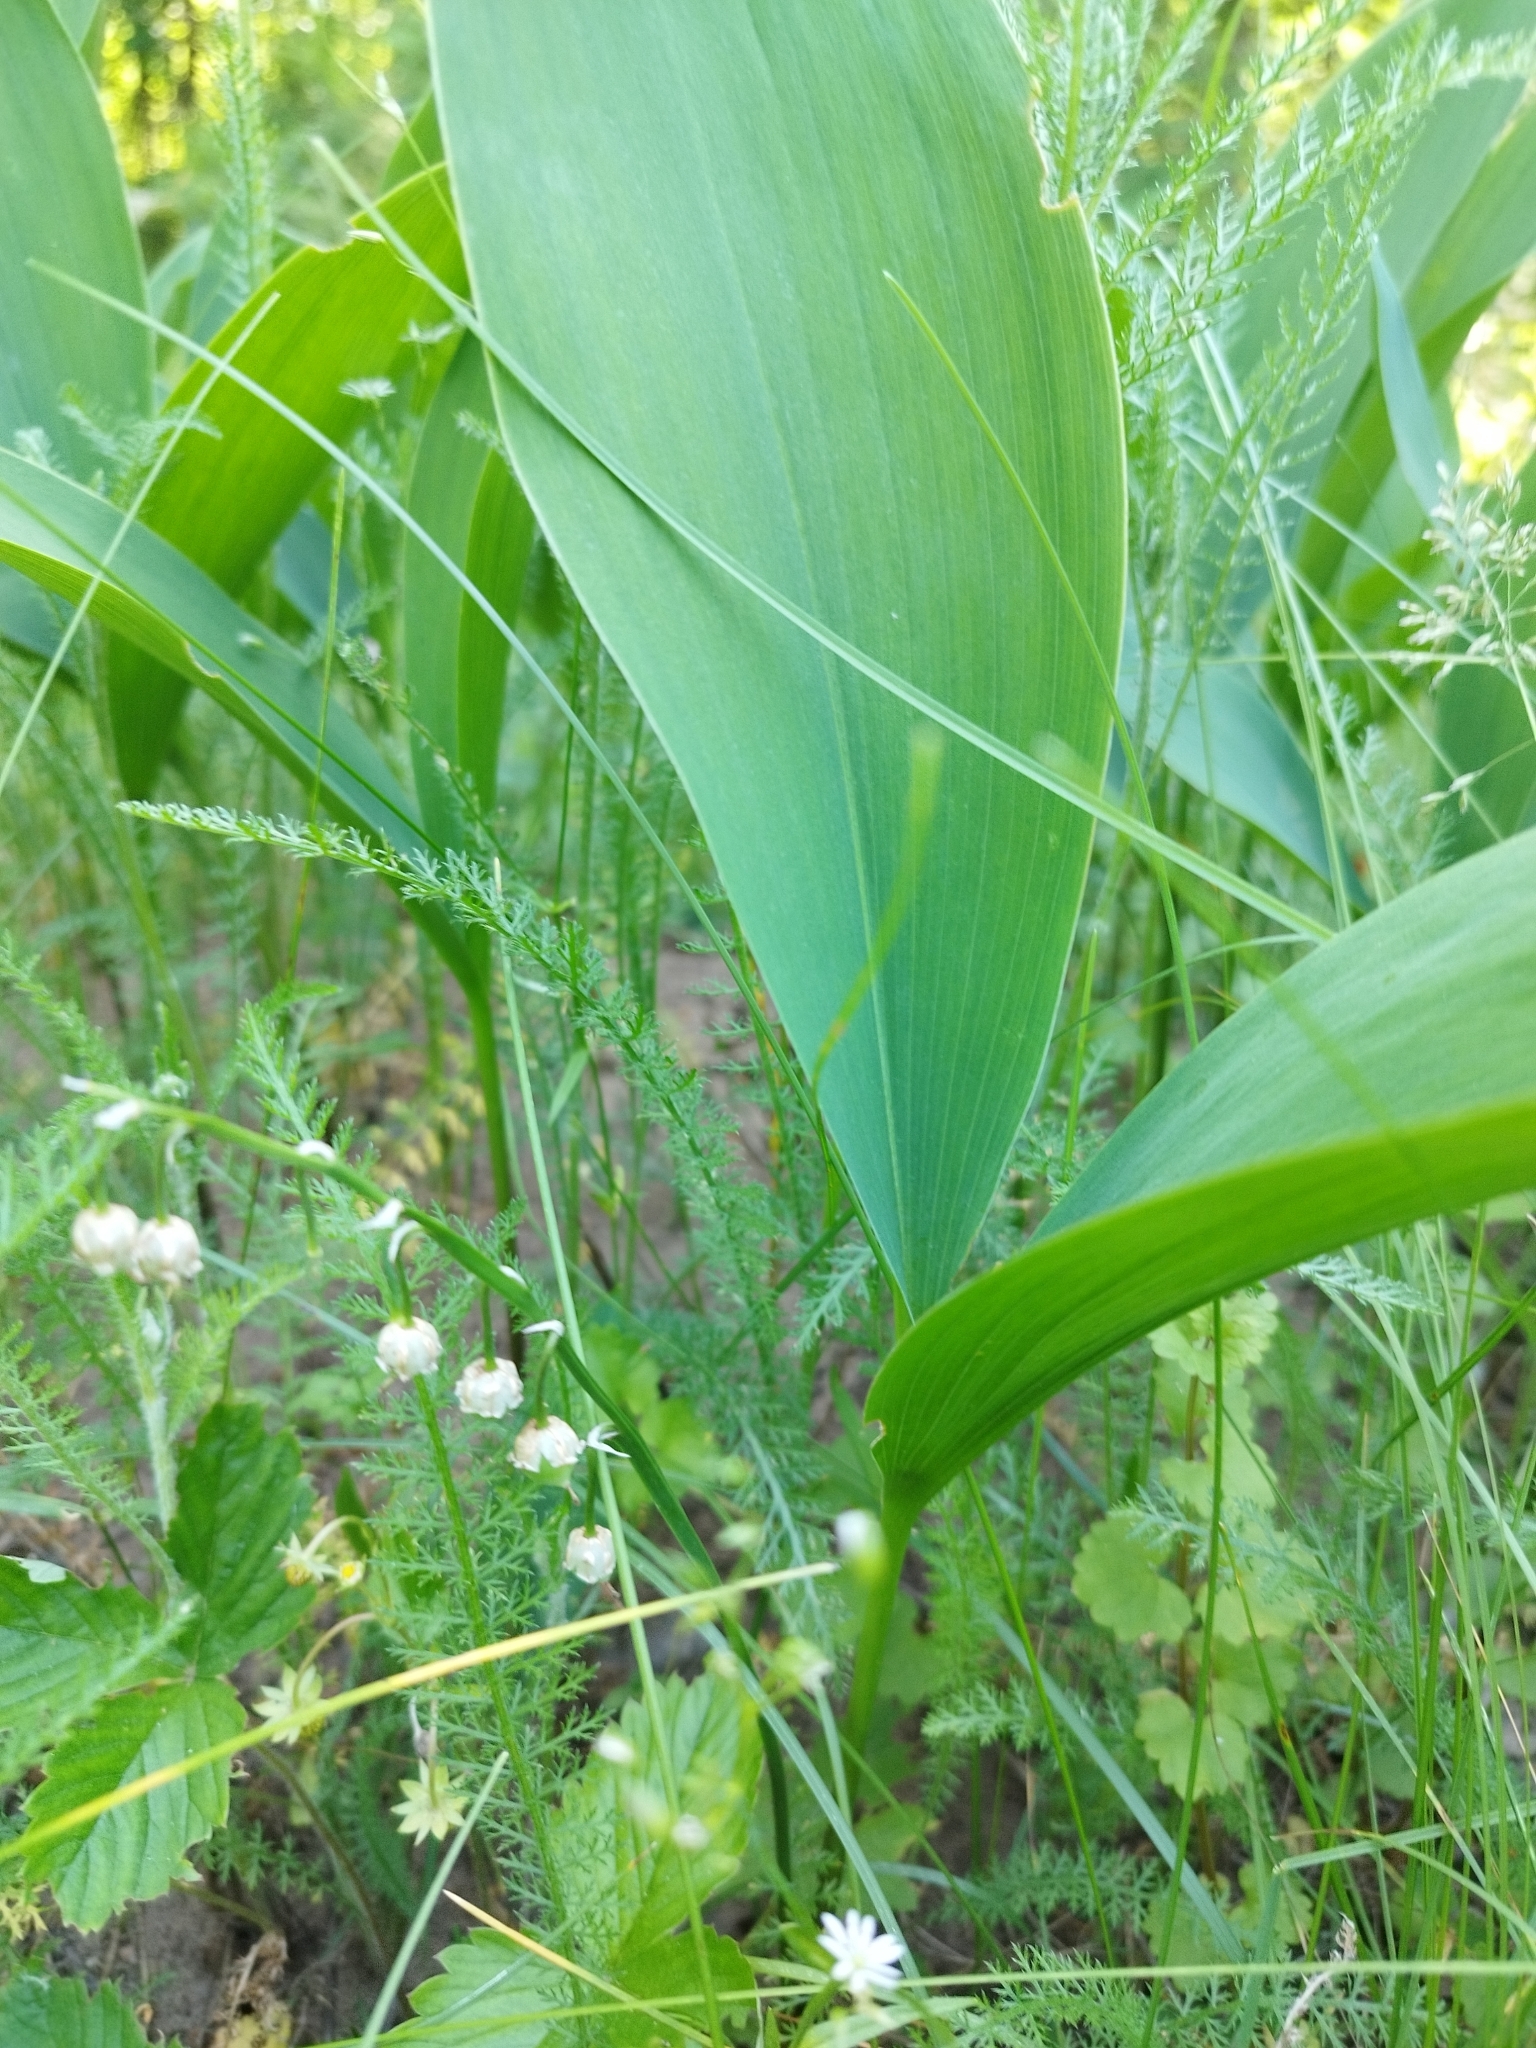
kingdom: Plantae
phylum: Tracheophyta
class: Liliopsida
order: Asparagales
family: Asparagaceae
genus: Convallaria
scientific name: Convallaria majalis
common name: Lily-of-the-valley
